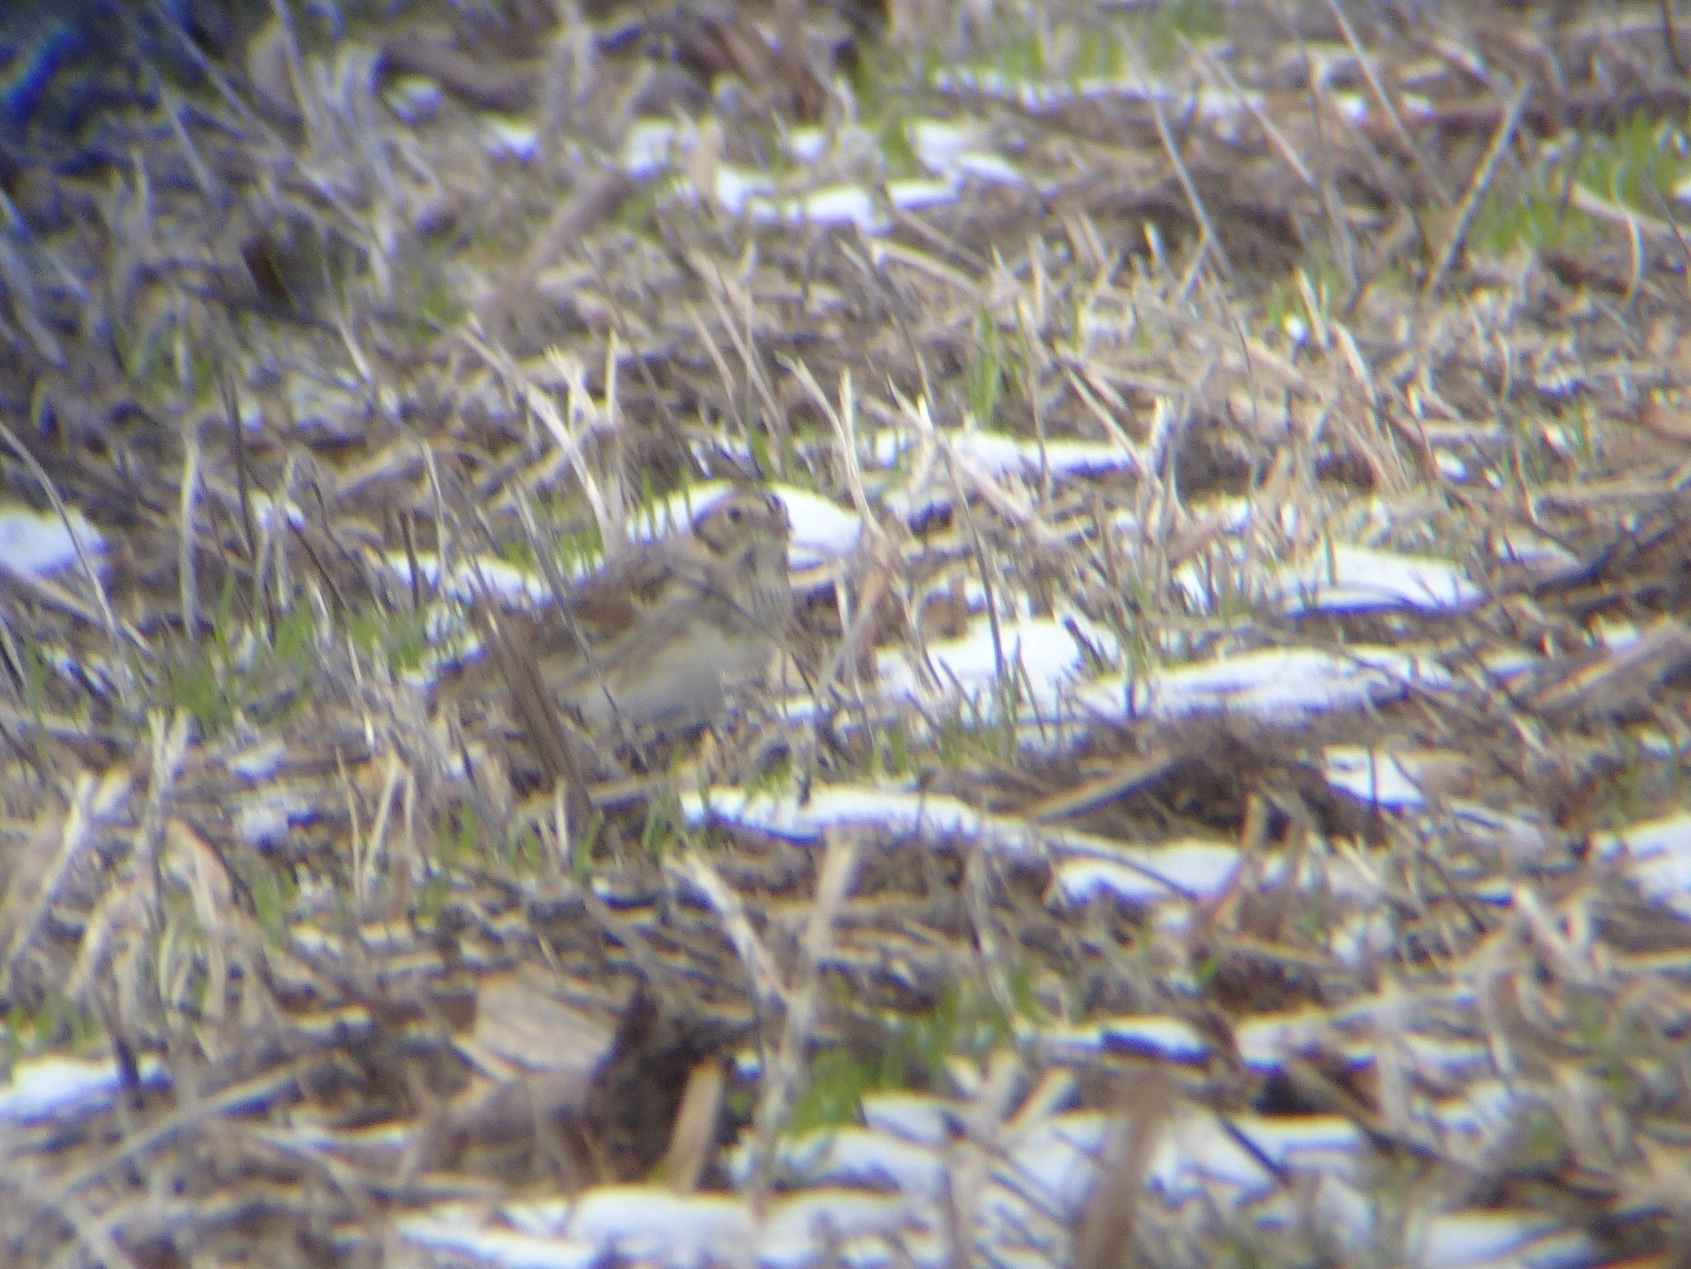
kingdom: Animalia
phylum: Chordata
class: Aves
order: Passeriformes
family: Calcariidae
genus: Calcarius
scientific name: Calcarius lapponicus
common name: Lapland longspur
